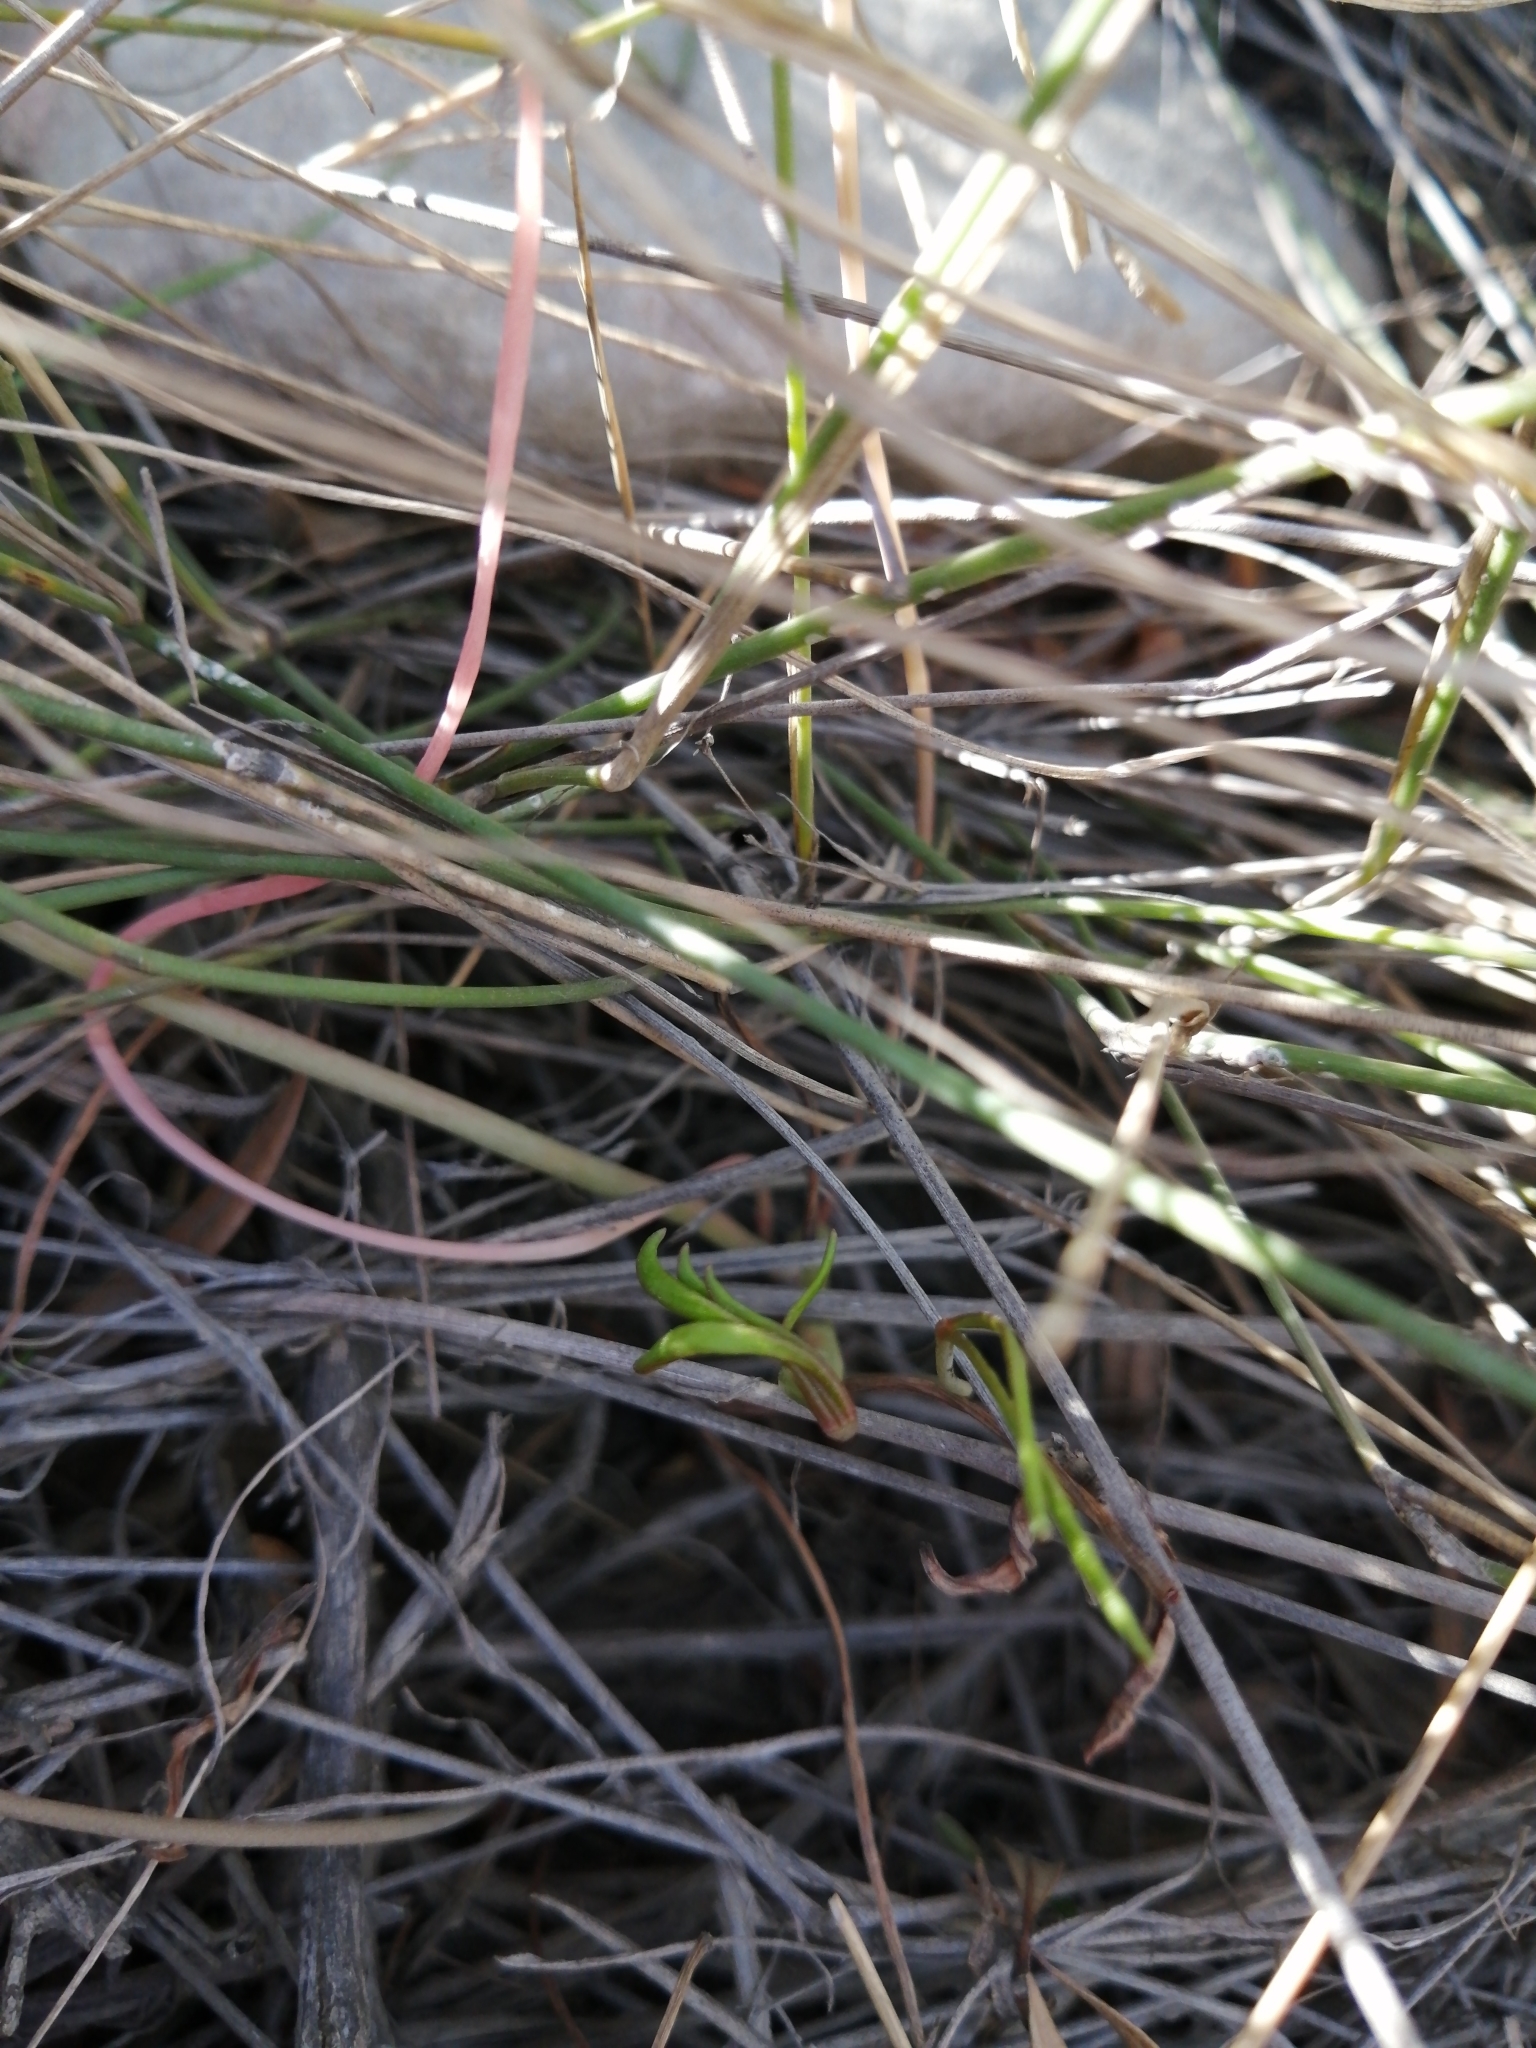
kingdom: Plantae
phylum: Tracheophyta
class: Magnoliopsida
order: Oxalidales
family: Oxalidaceae
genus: Oxalis
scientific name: Oxalis flava
